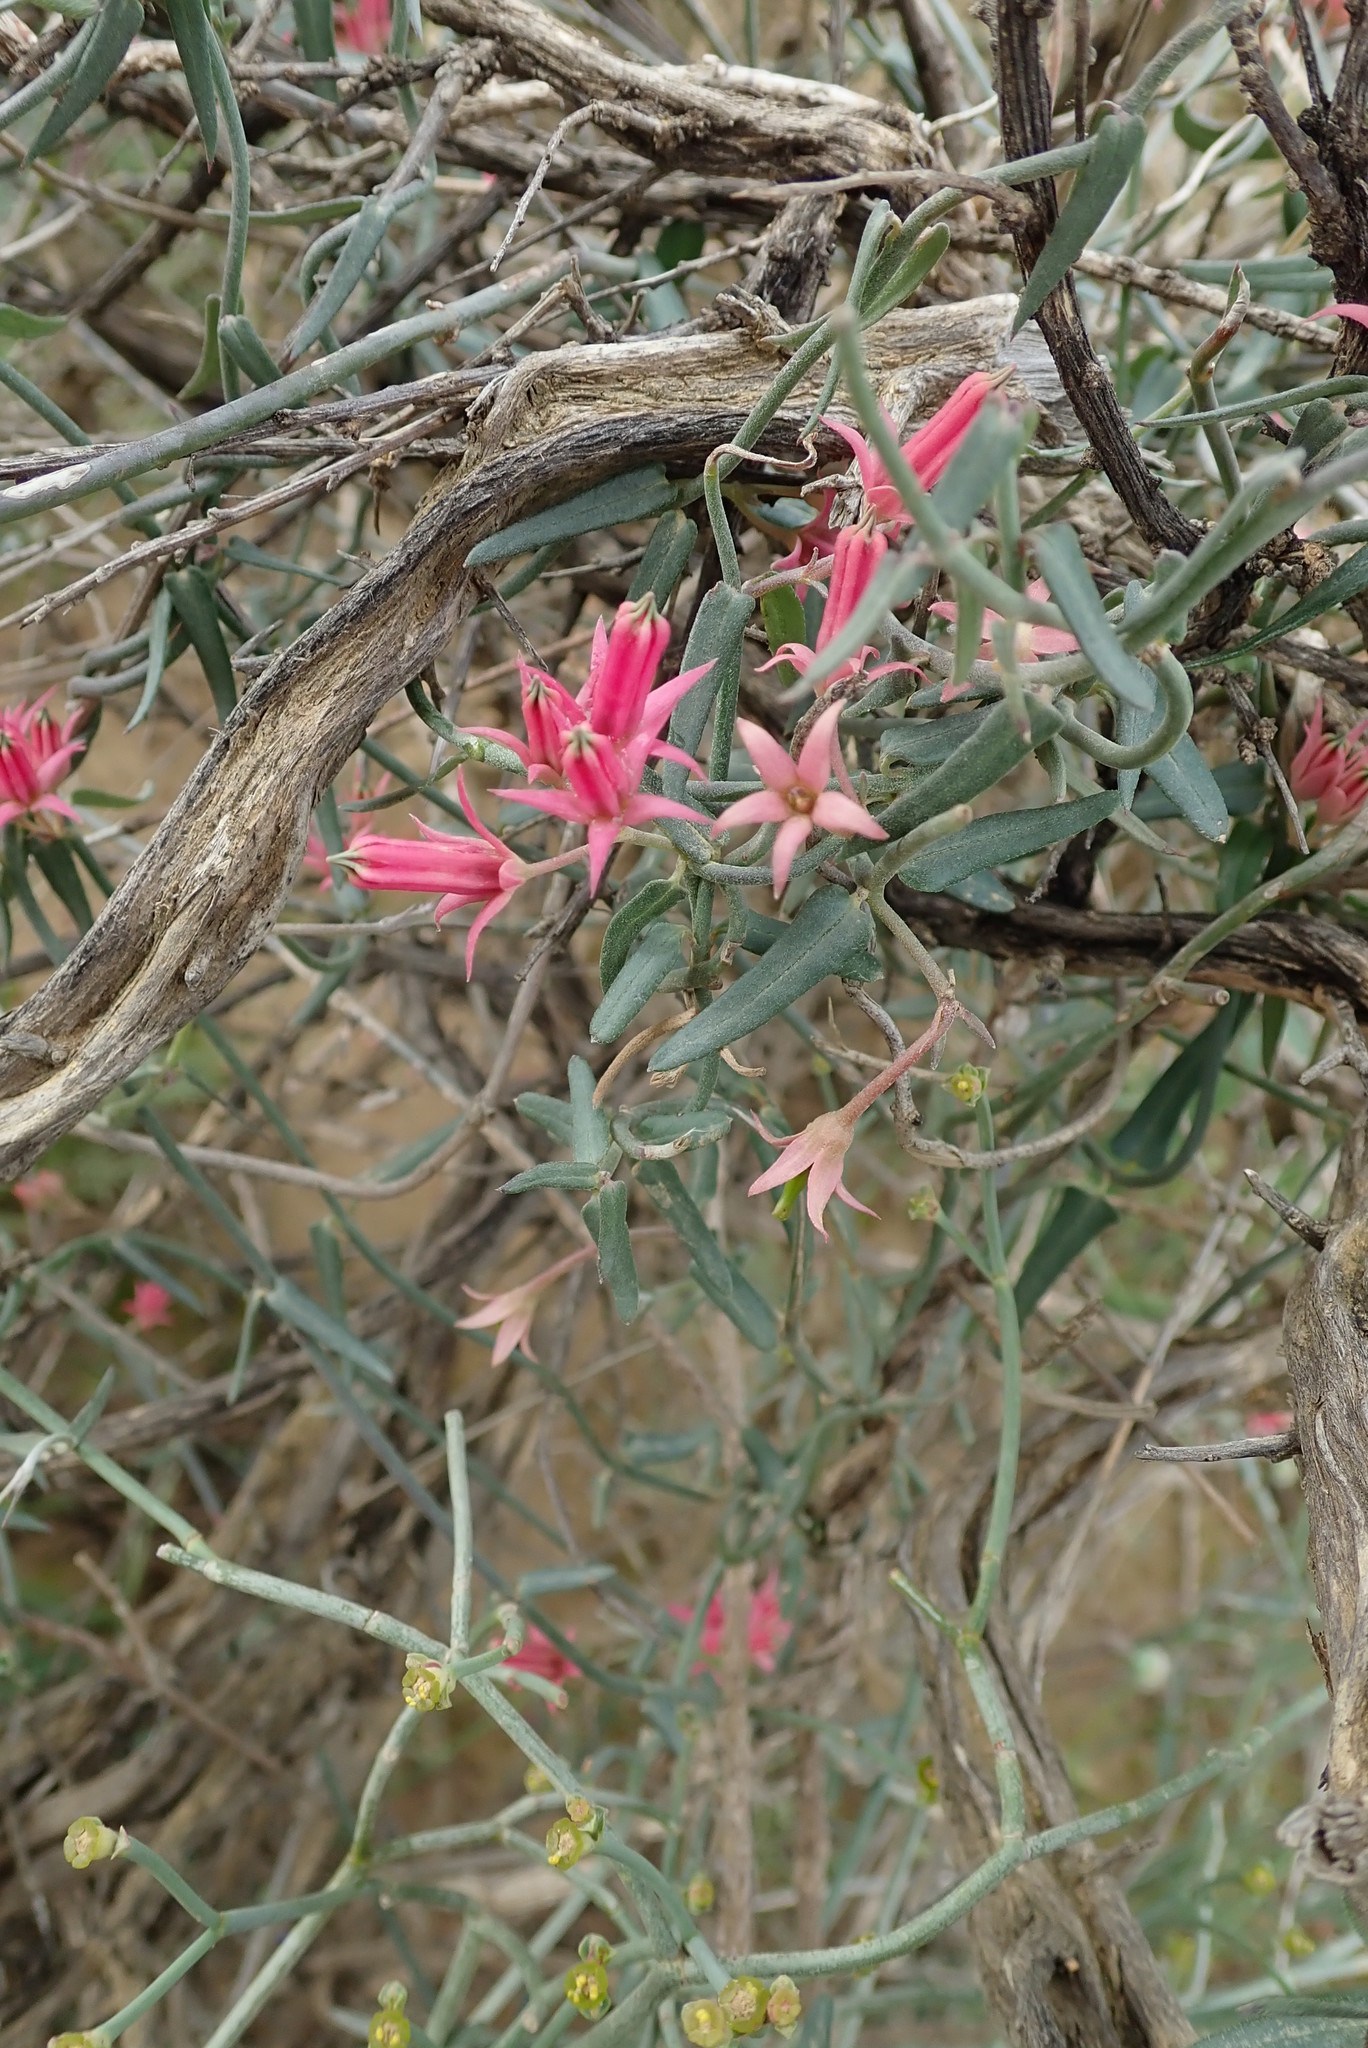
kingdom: Plantae
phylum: Tracheophyta
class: Magnoliopsida
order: Gentianales
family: Apocynaceae
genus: Microloma
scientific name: Microloma sagittatum
